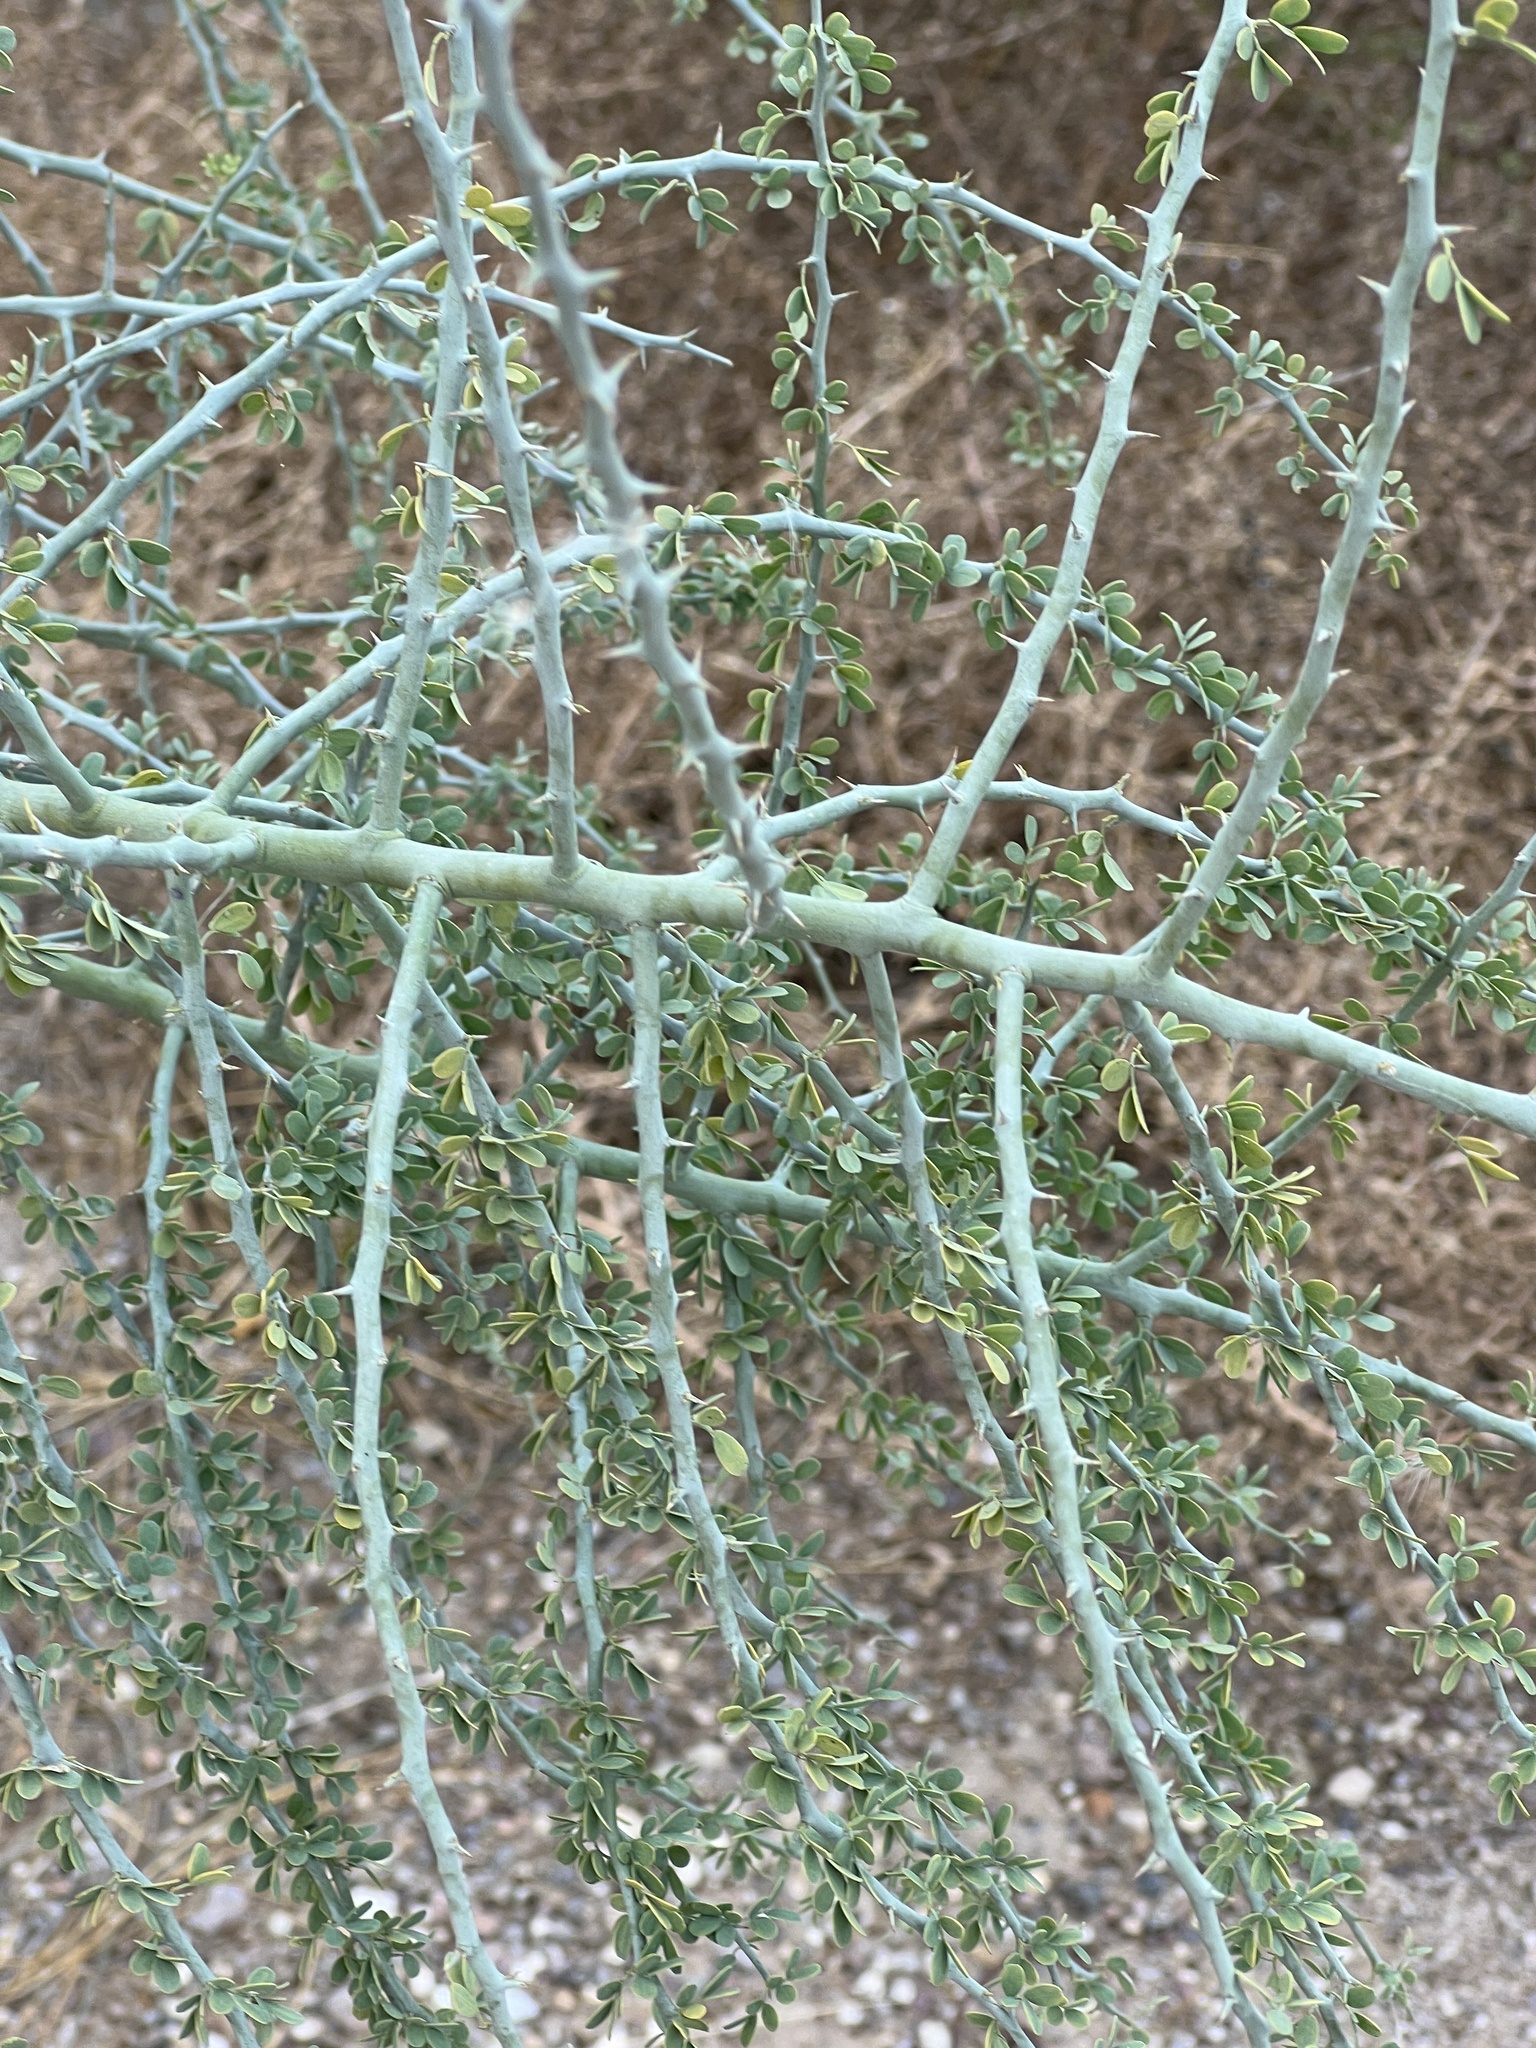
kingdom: Plantae
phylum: Tracheophyta
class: Magnoliopsida
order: Fabales
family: Fabaceae
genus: Parkinsonia
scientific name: Parkinsonia florida
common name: Blue paloverde
